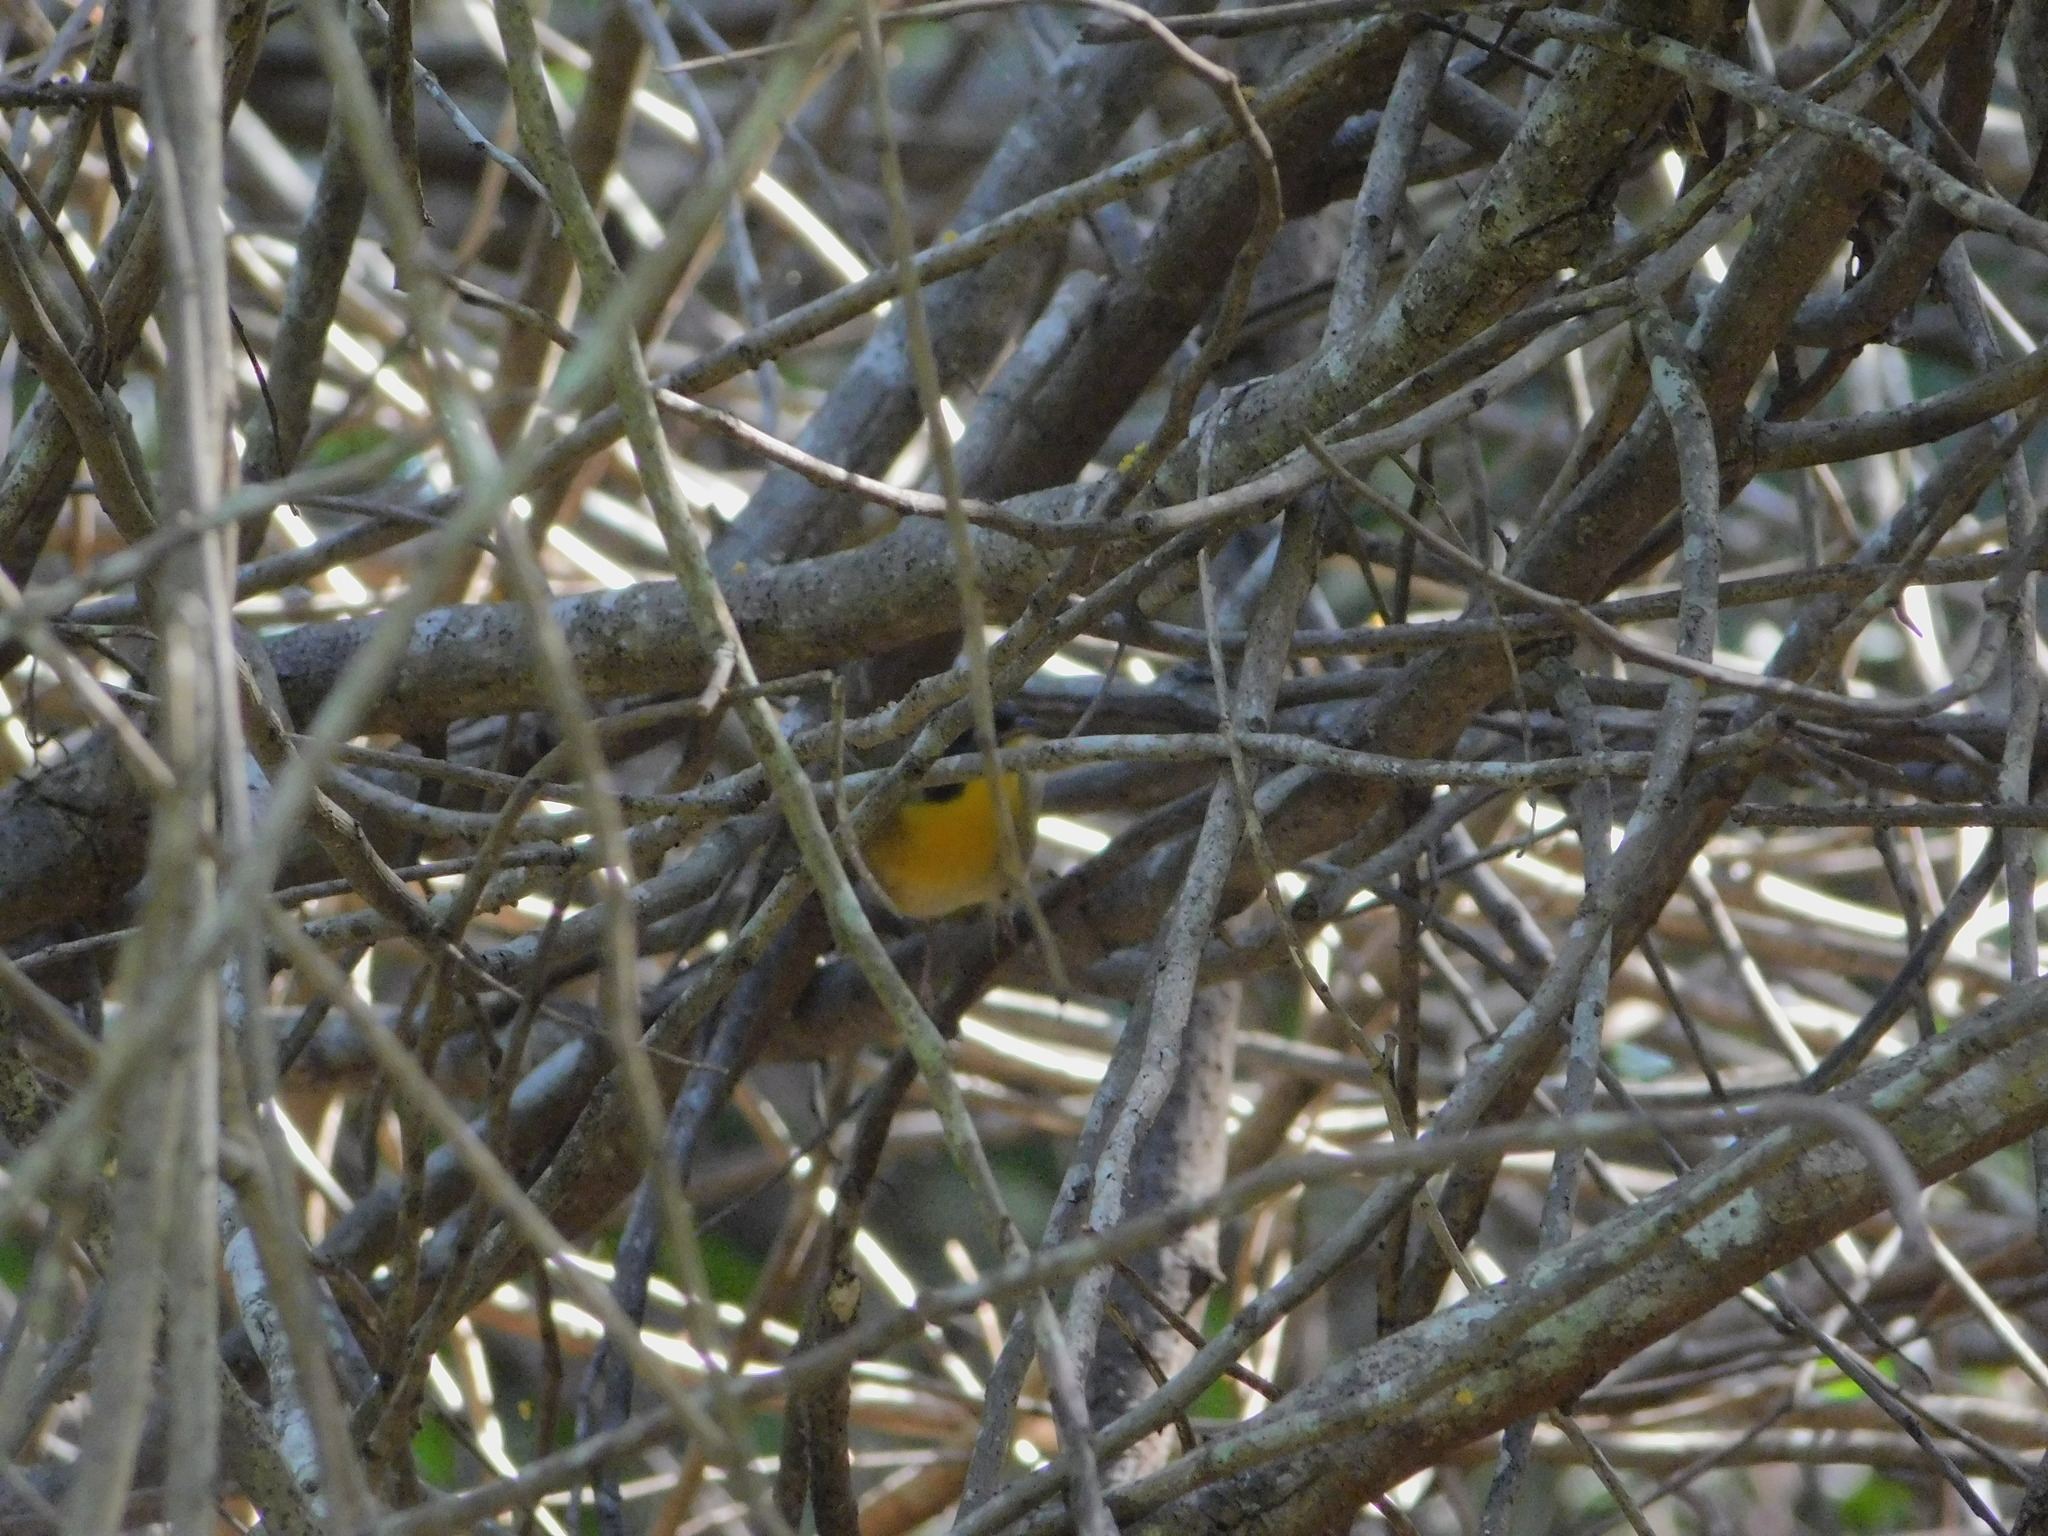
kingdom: Animalia
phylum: Chordata
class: Aves
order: Passeriformes
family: Parulidae
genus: Geothlypis
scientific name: Geothlypis trichas
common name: Common yellowthroat
